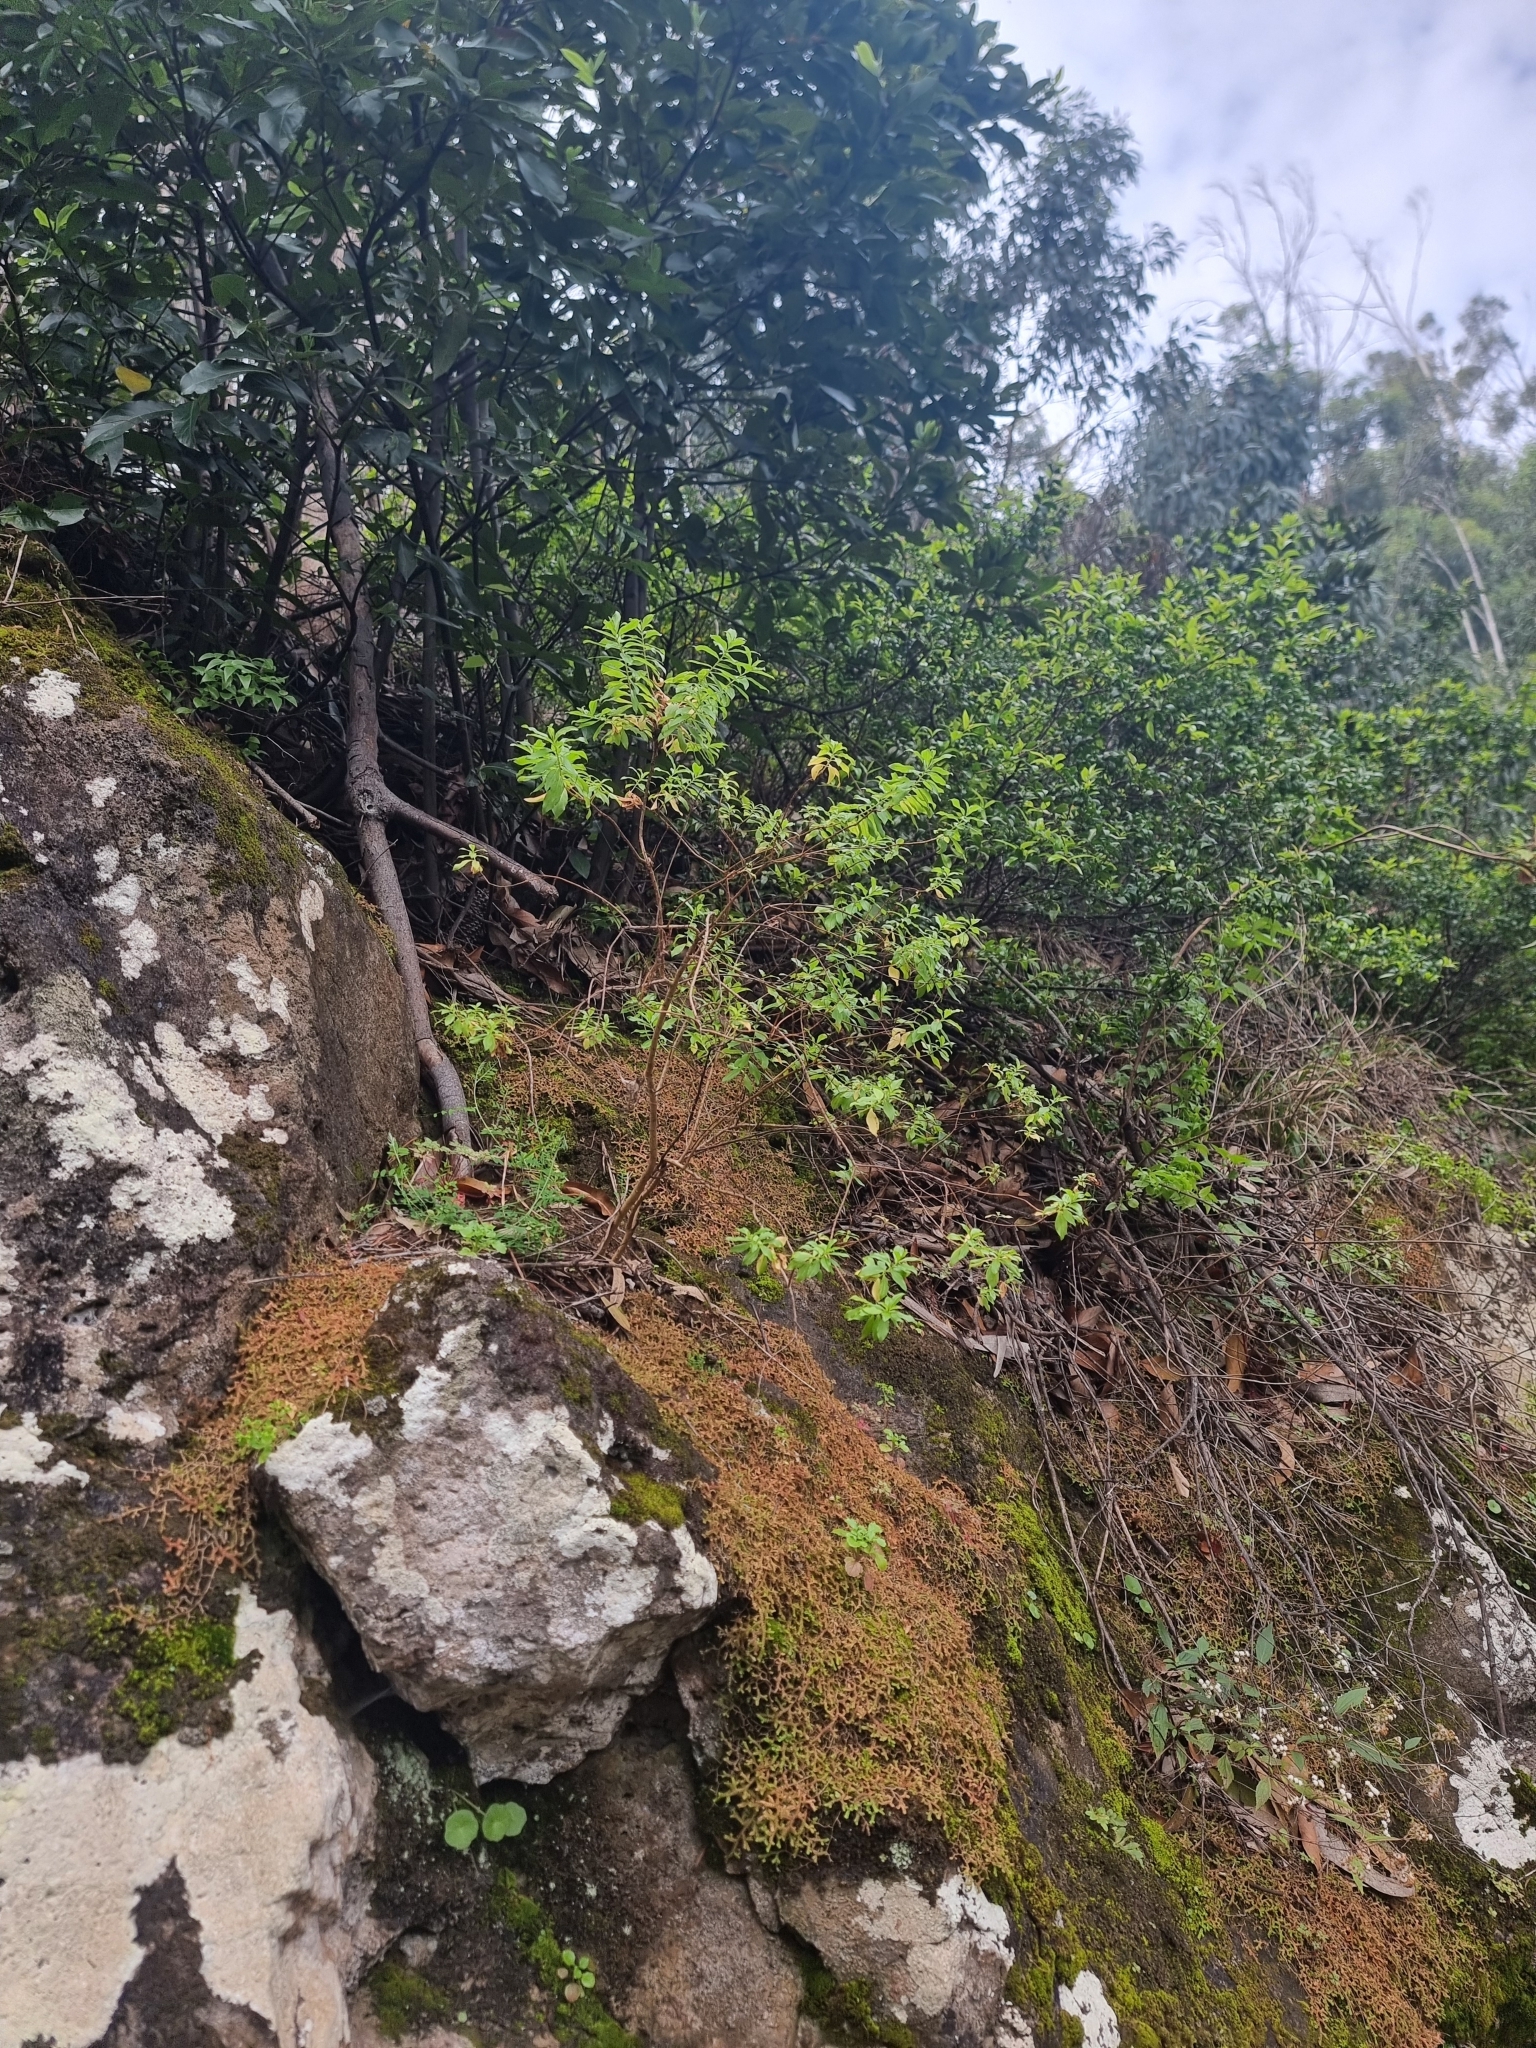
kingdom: Plantae
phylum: Tracheophyta
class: Magnoliopsida
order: Malpighiales
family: Hypericaceae
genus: Hypericum
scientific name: Hypericum glandulosum
